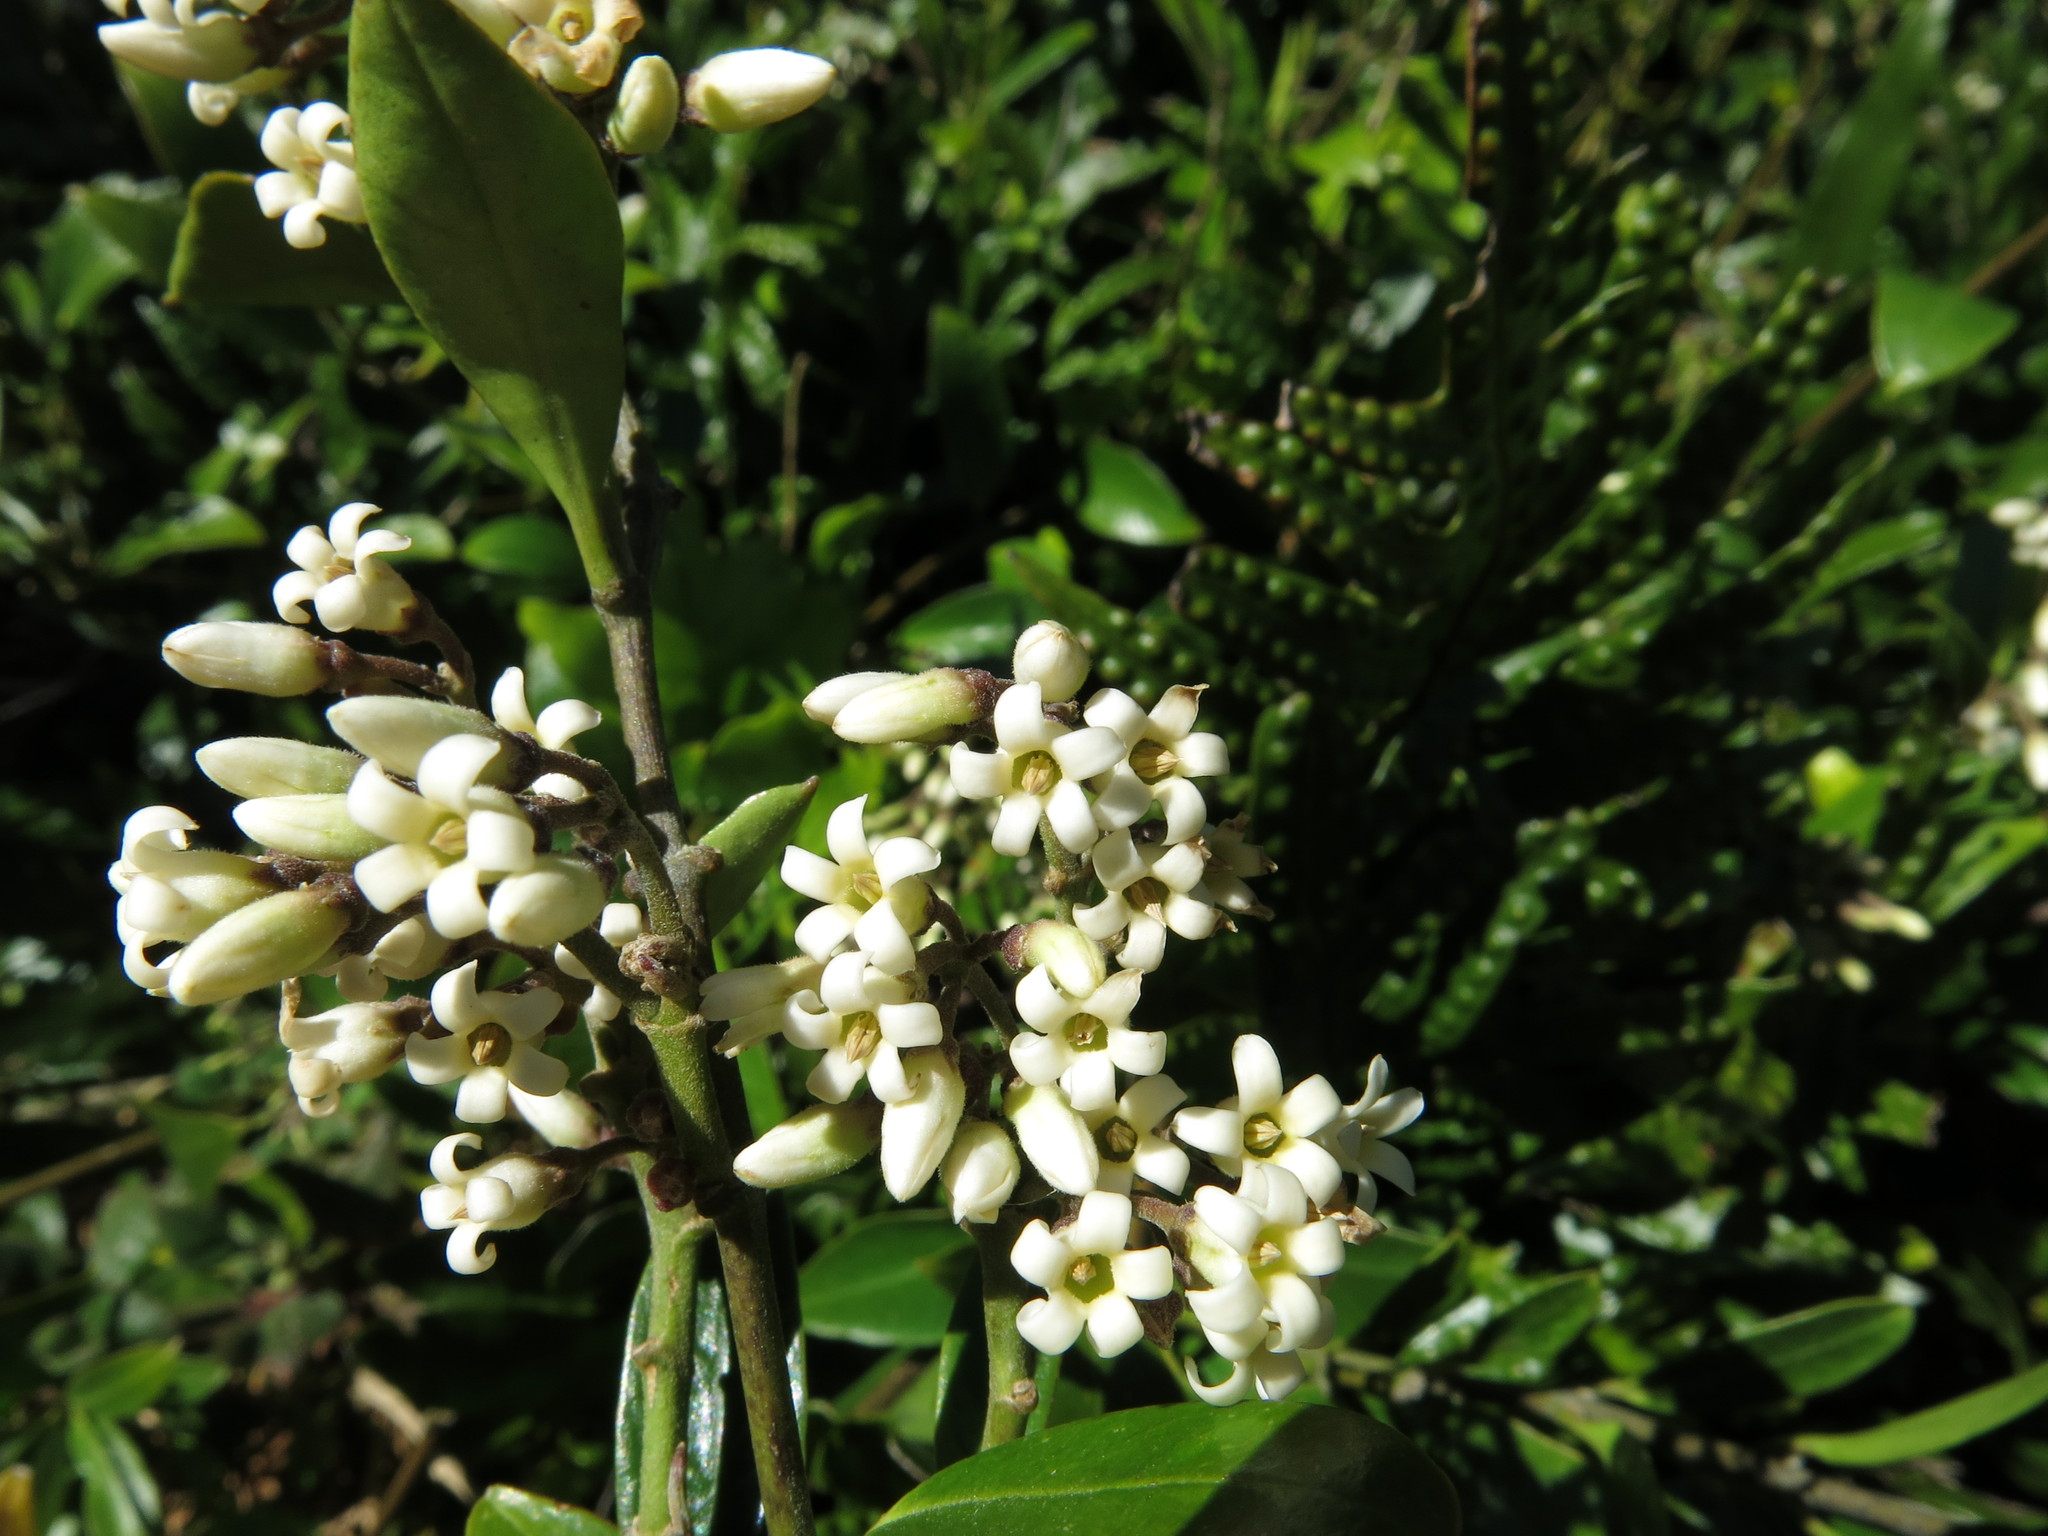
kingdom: Plantae
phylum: Tracheophyta
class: Magnoliopsida
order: Gentianales
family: Apocynaceae
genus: Parsonsia
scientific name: Parsonsia heterophylla
